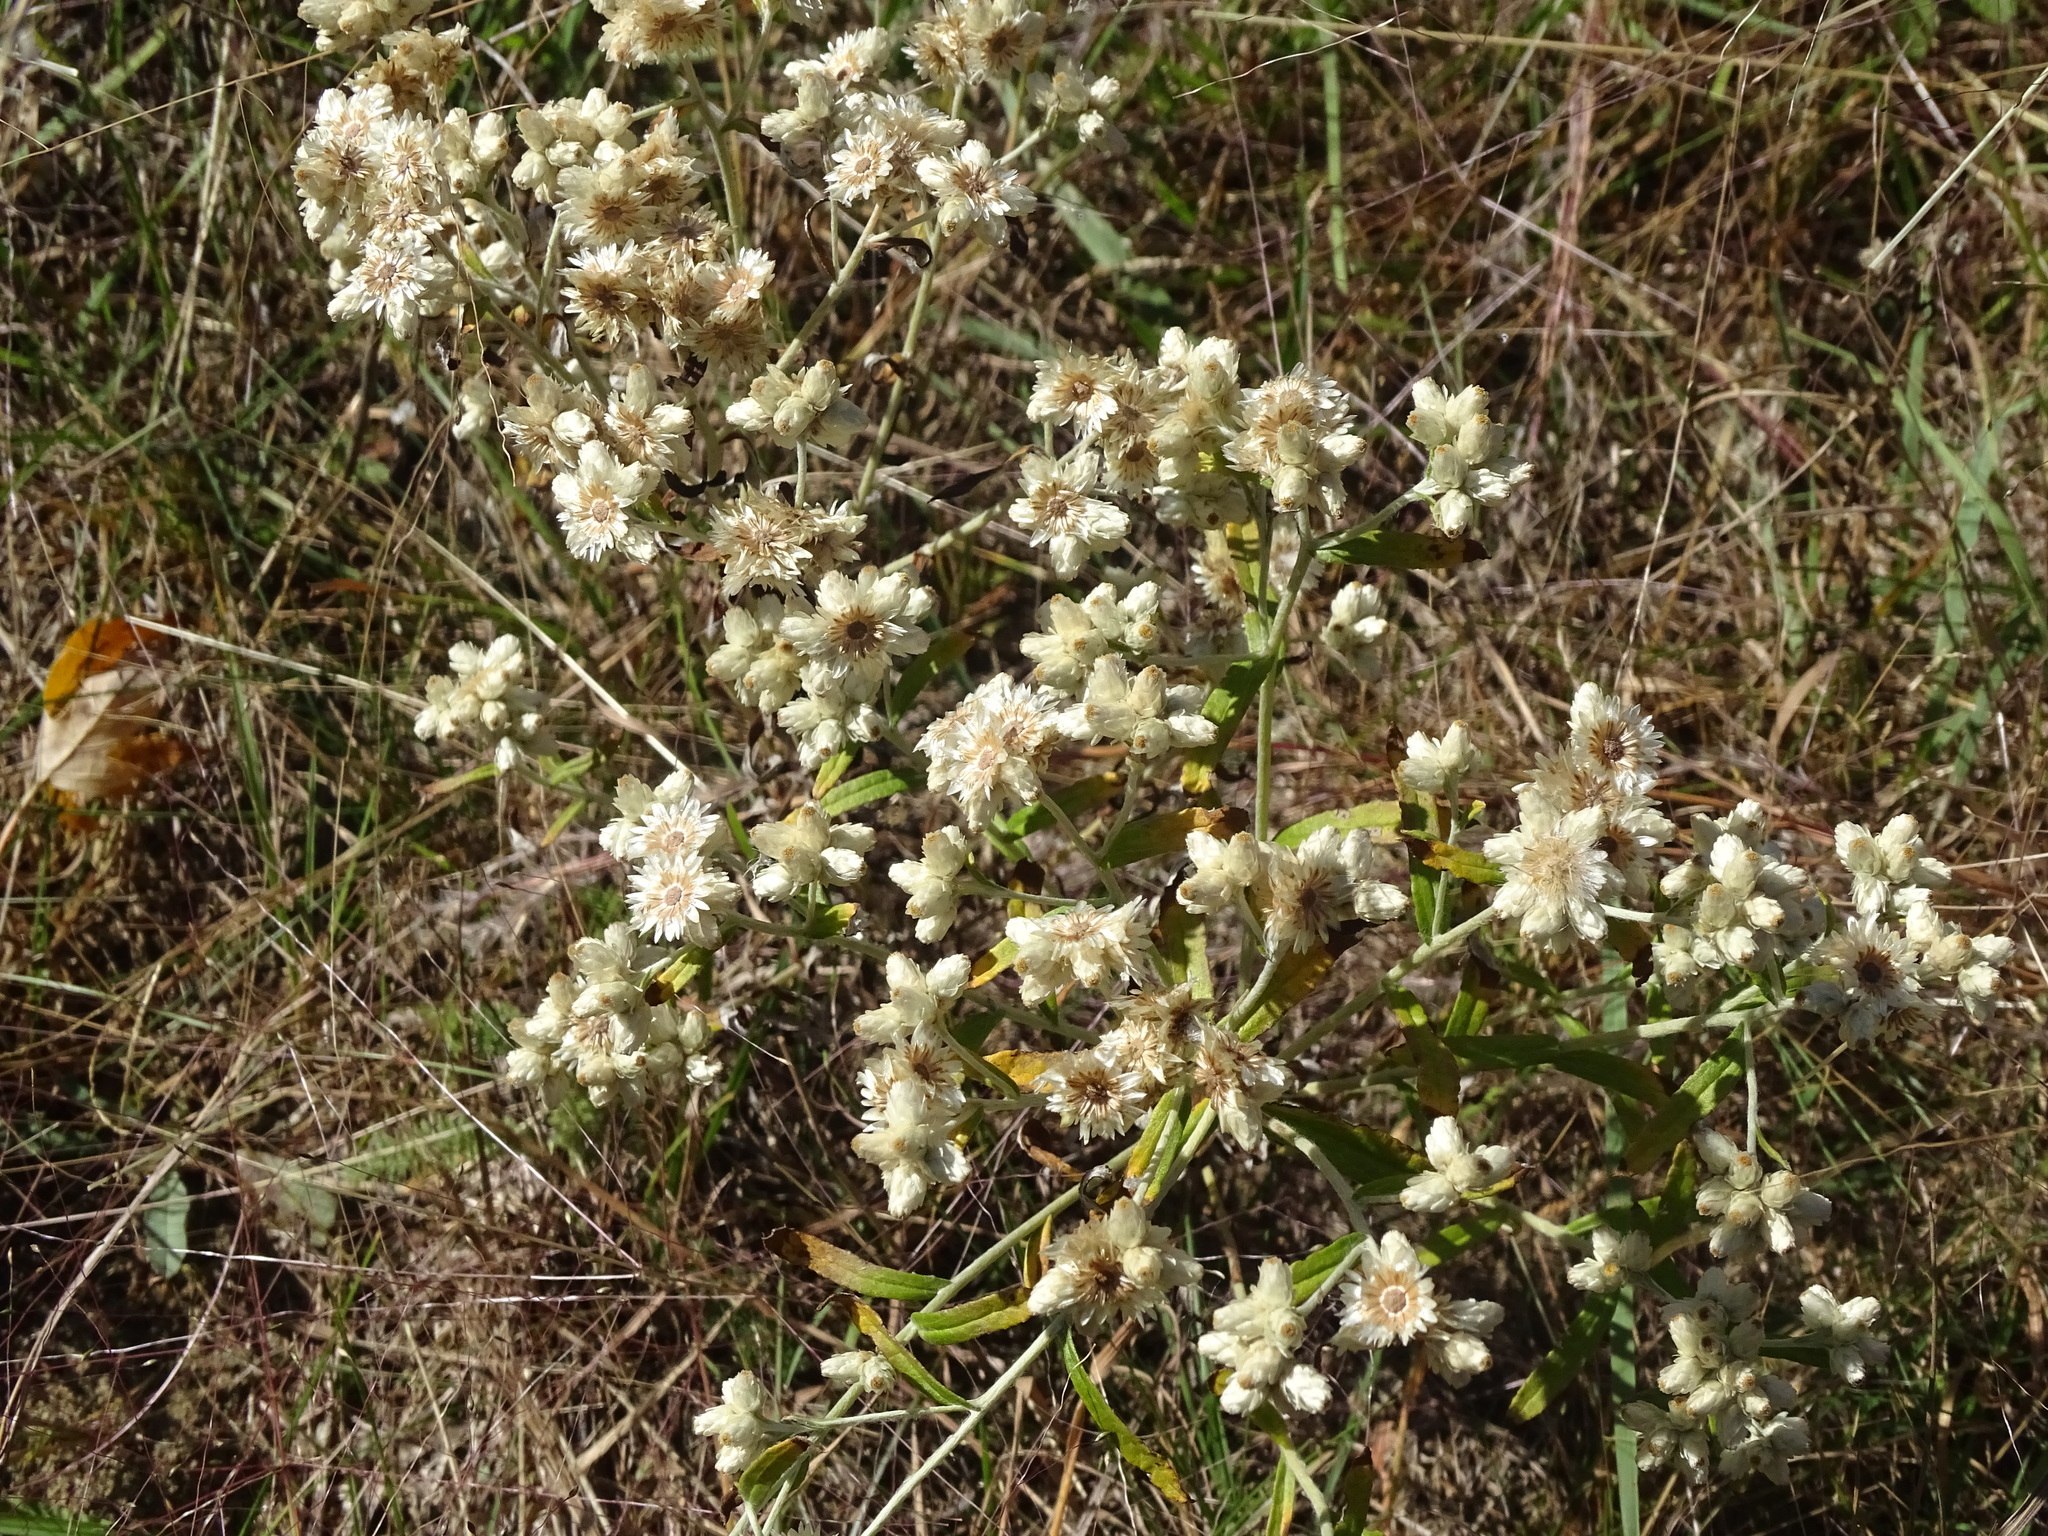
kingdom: Plantae
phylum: Tracheophyta
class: Magnoliopsida
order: Asterales
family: Asteraceae
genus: Pseudognaphalium
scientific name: Pseudognaphalium obtusifolium
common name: Eastern rabbit-tobacco
